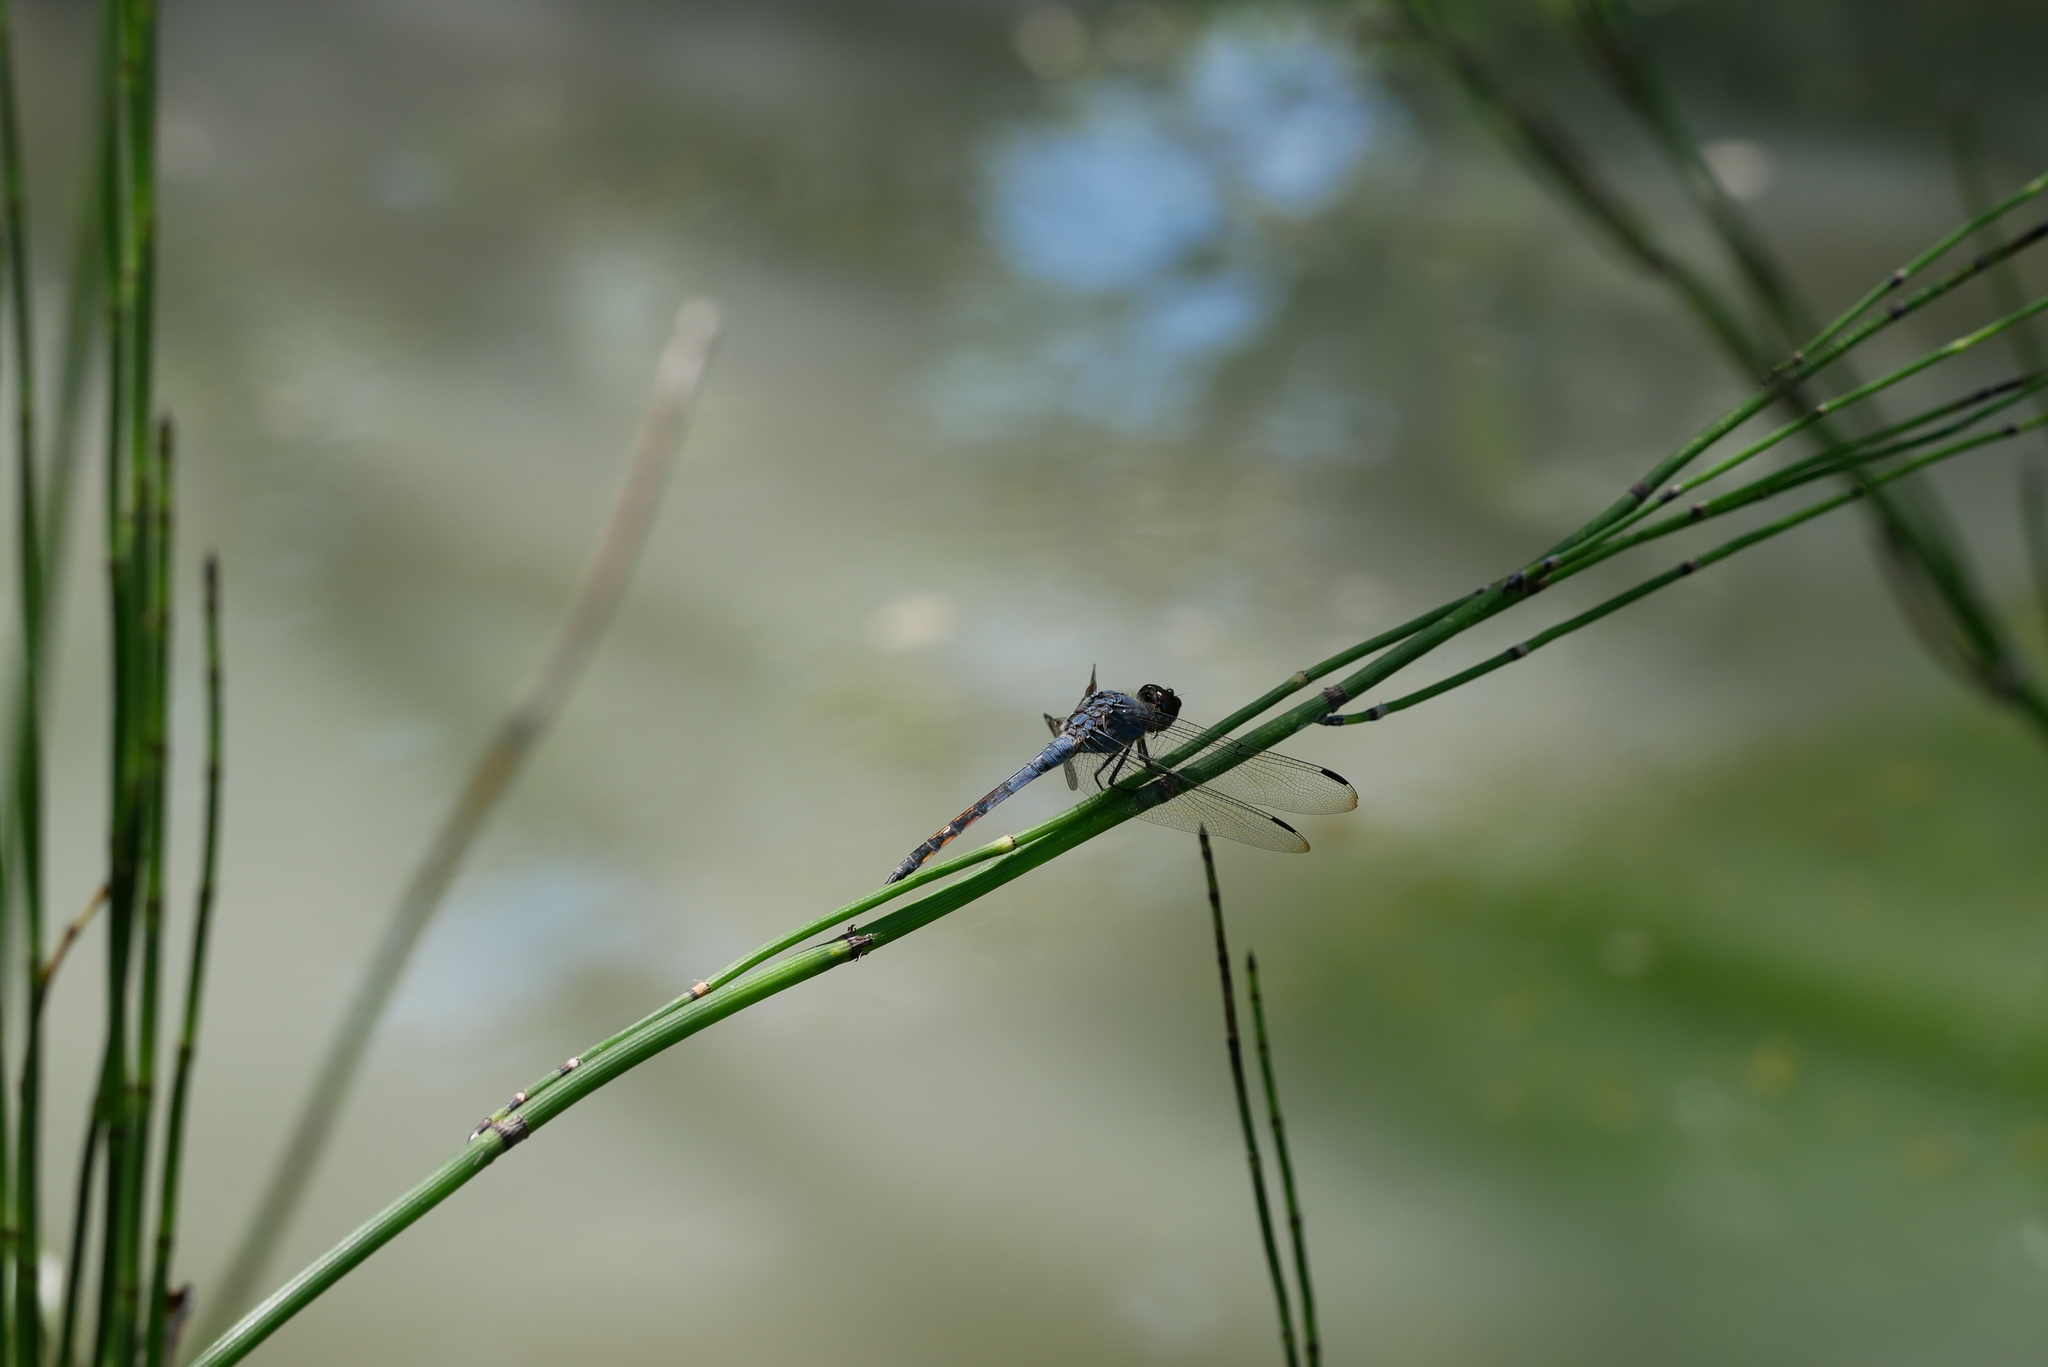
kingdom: Animalia
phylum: Arthropoda
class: Insecta
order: Odonata
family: Libellulidae
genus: Potamarcha
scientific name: Potamarcha congener
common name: Blue chaser
